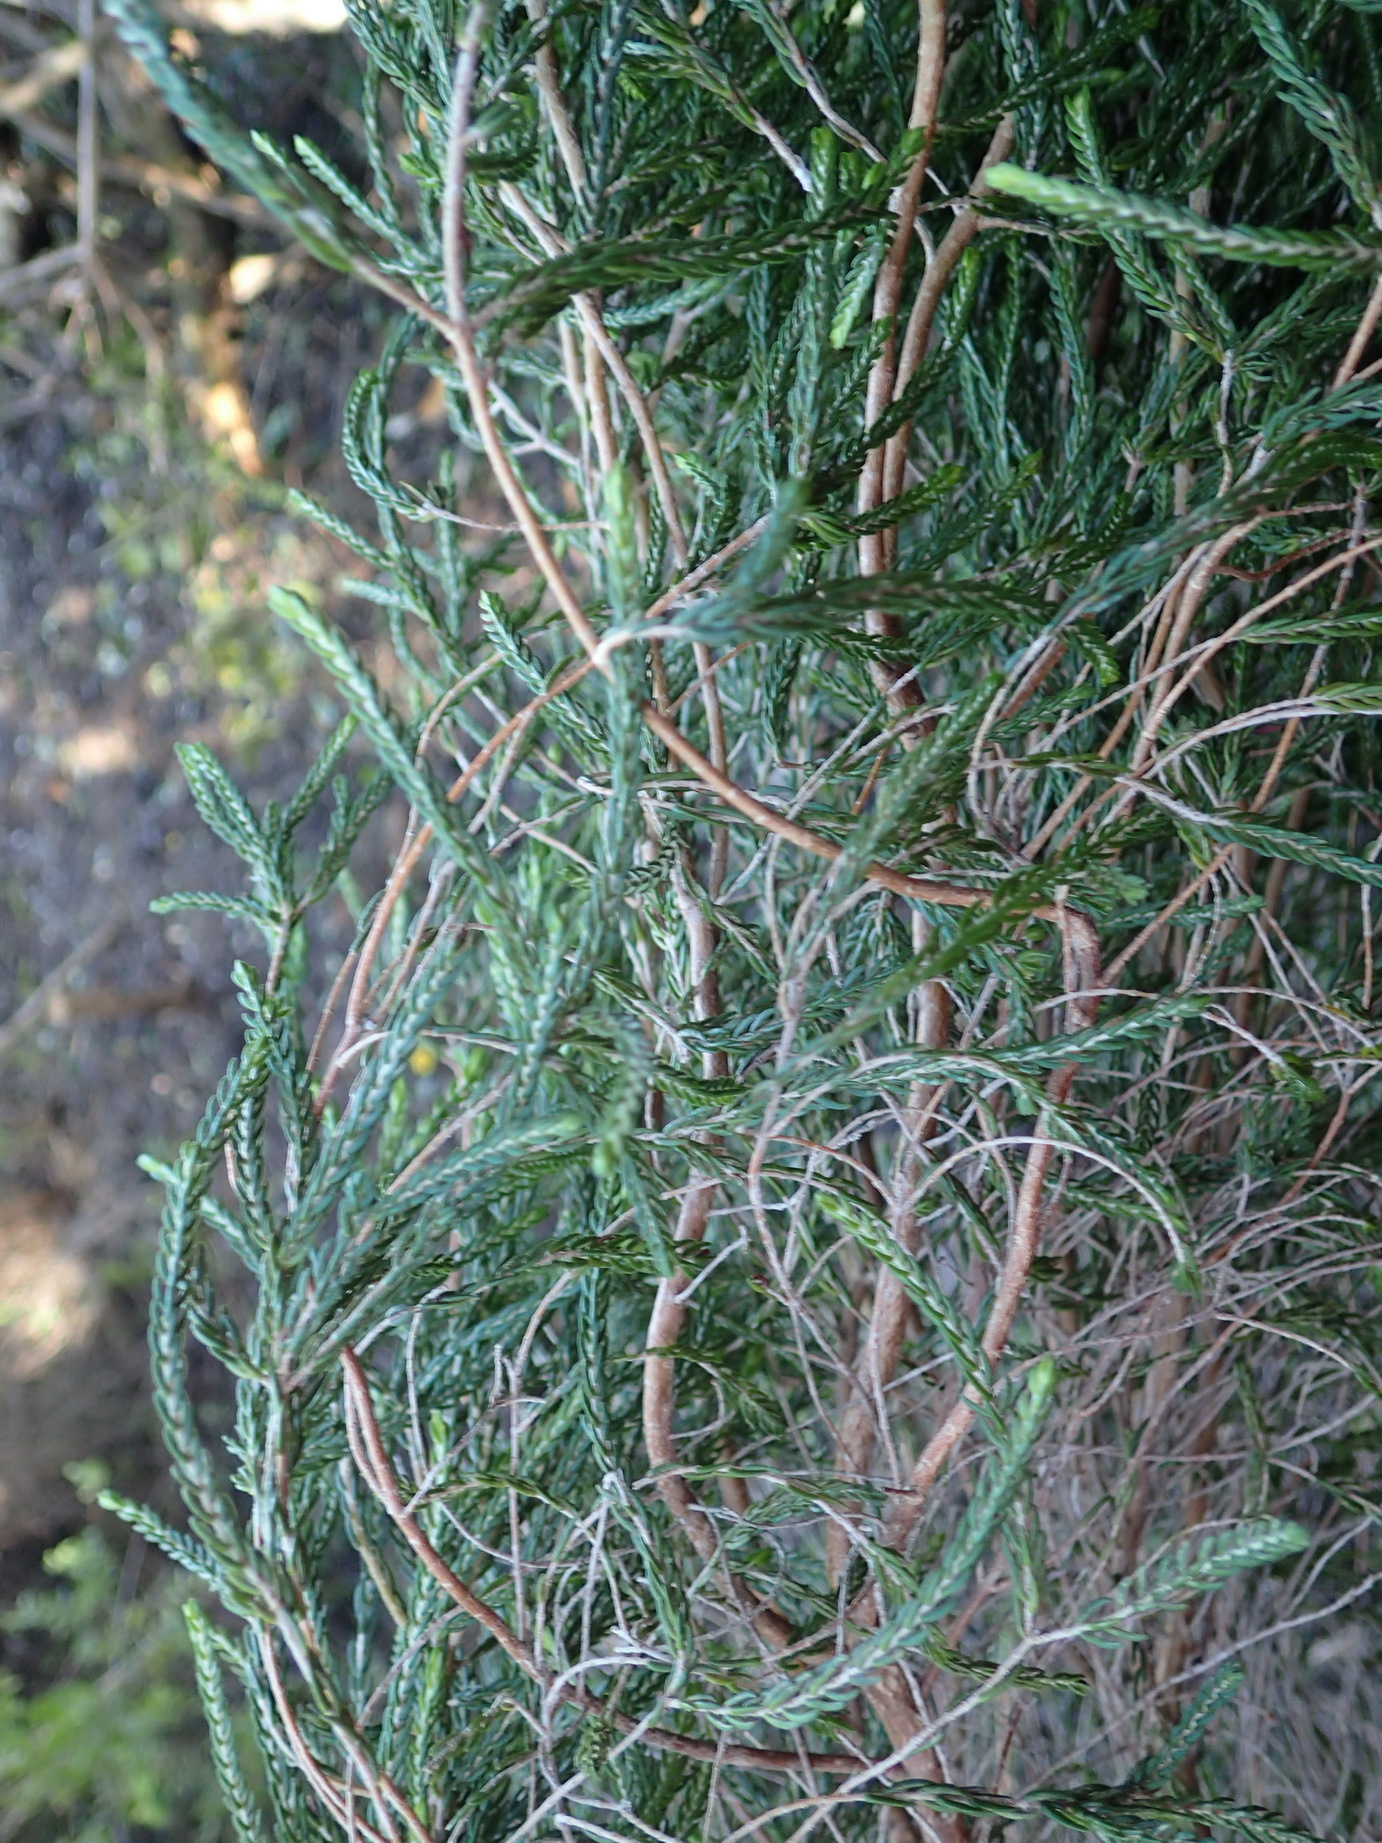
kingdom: Plantae
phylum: Tracheophyta
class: Magnoliopsida
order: Malvales
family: Thymelaeaceae
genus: Passerina
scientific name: Passerina corymbosa
